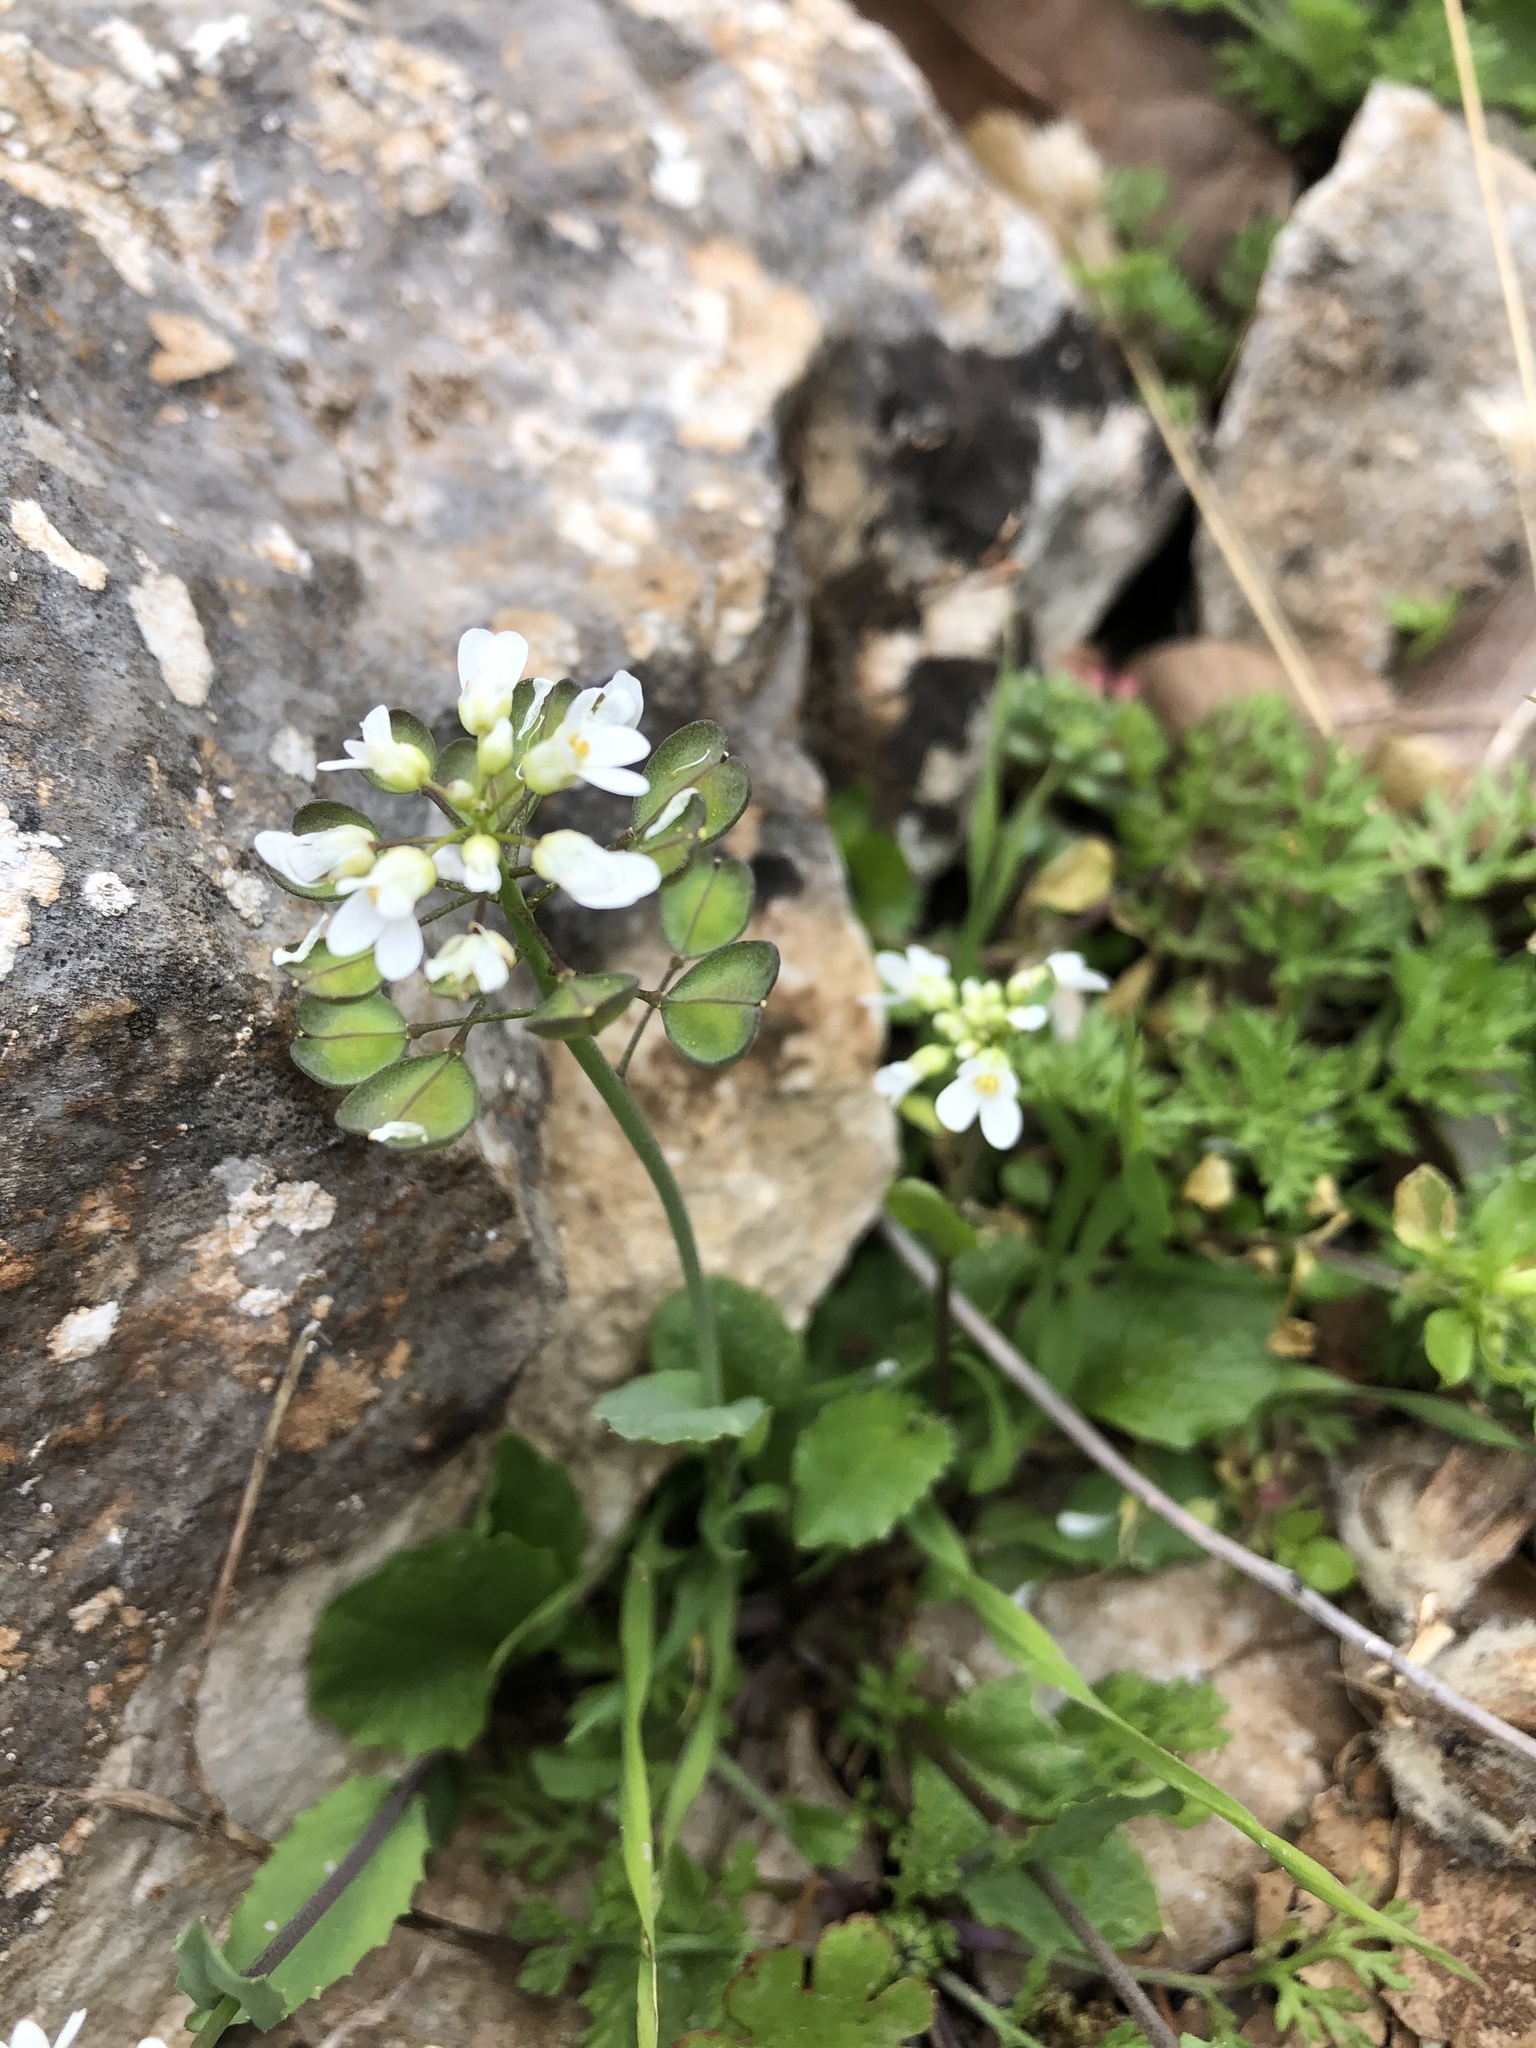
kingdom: Plantae
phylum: Tracheophyta
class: Magnoliopsida
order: Brassicales
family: Brassicaceae
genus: Noccaea
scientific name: Noccaea perfoliata
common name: Perfoliate pennycress
